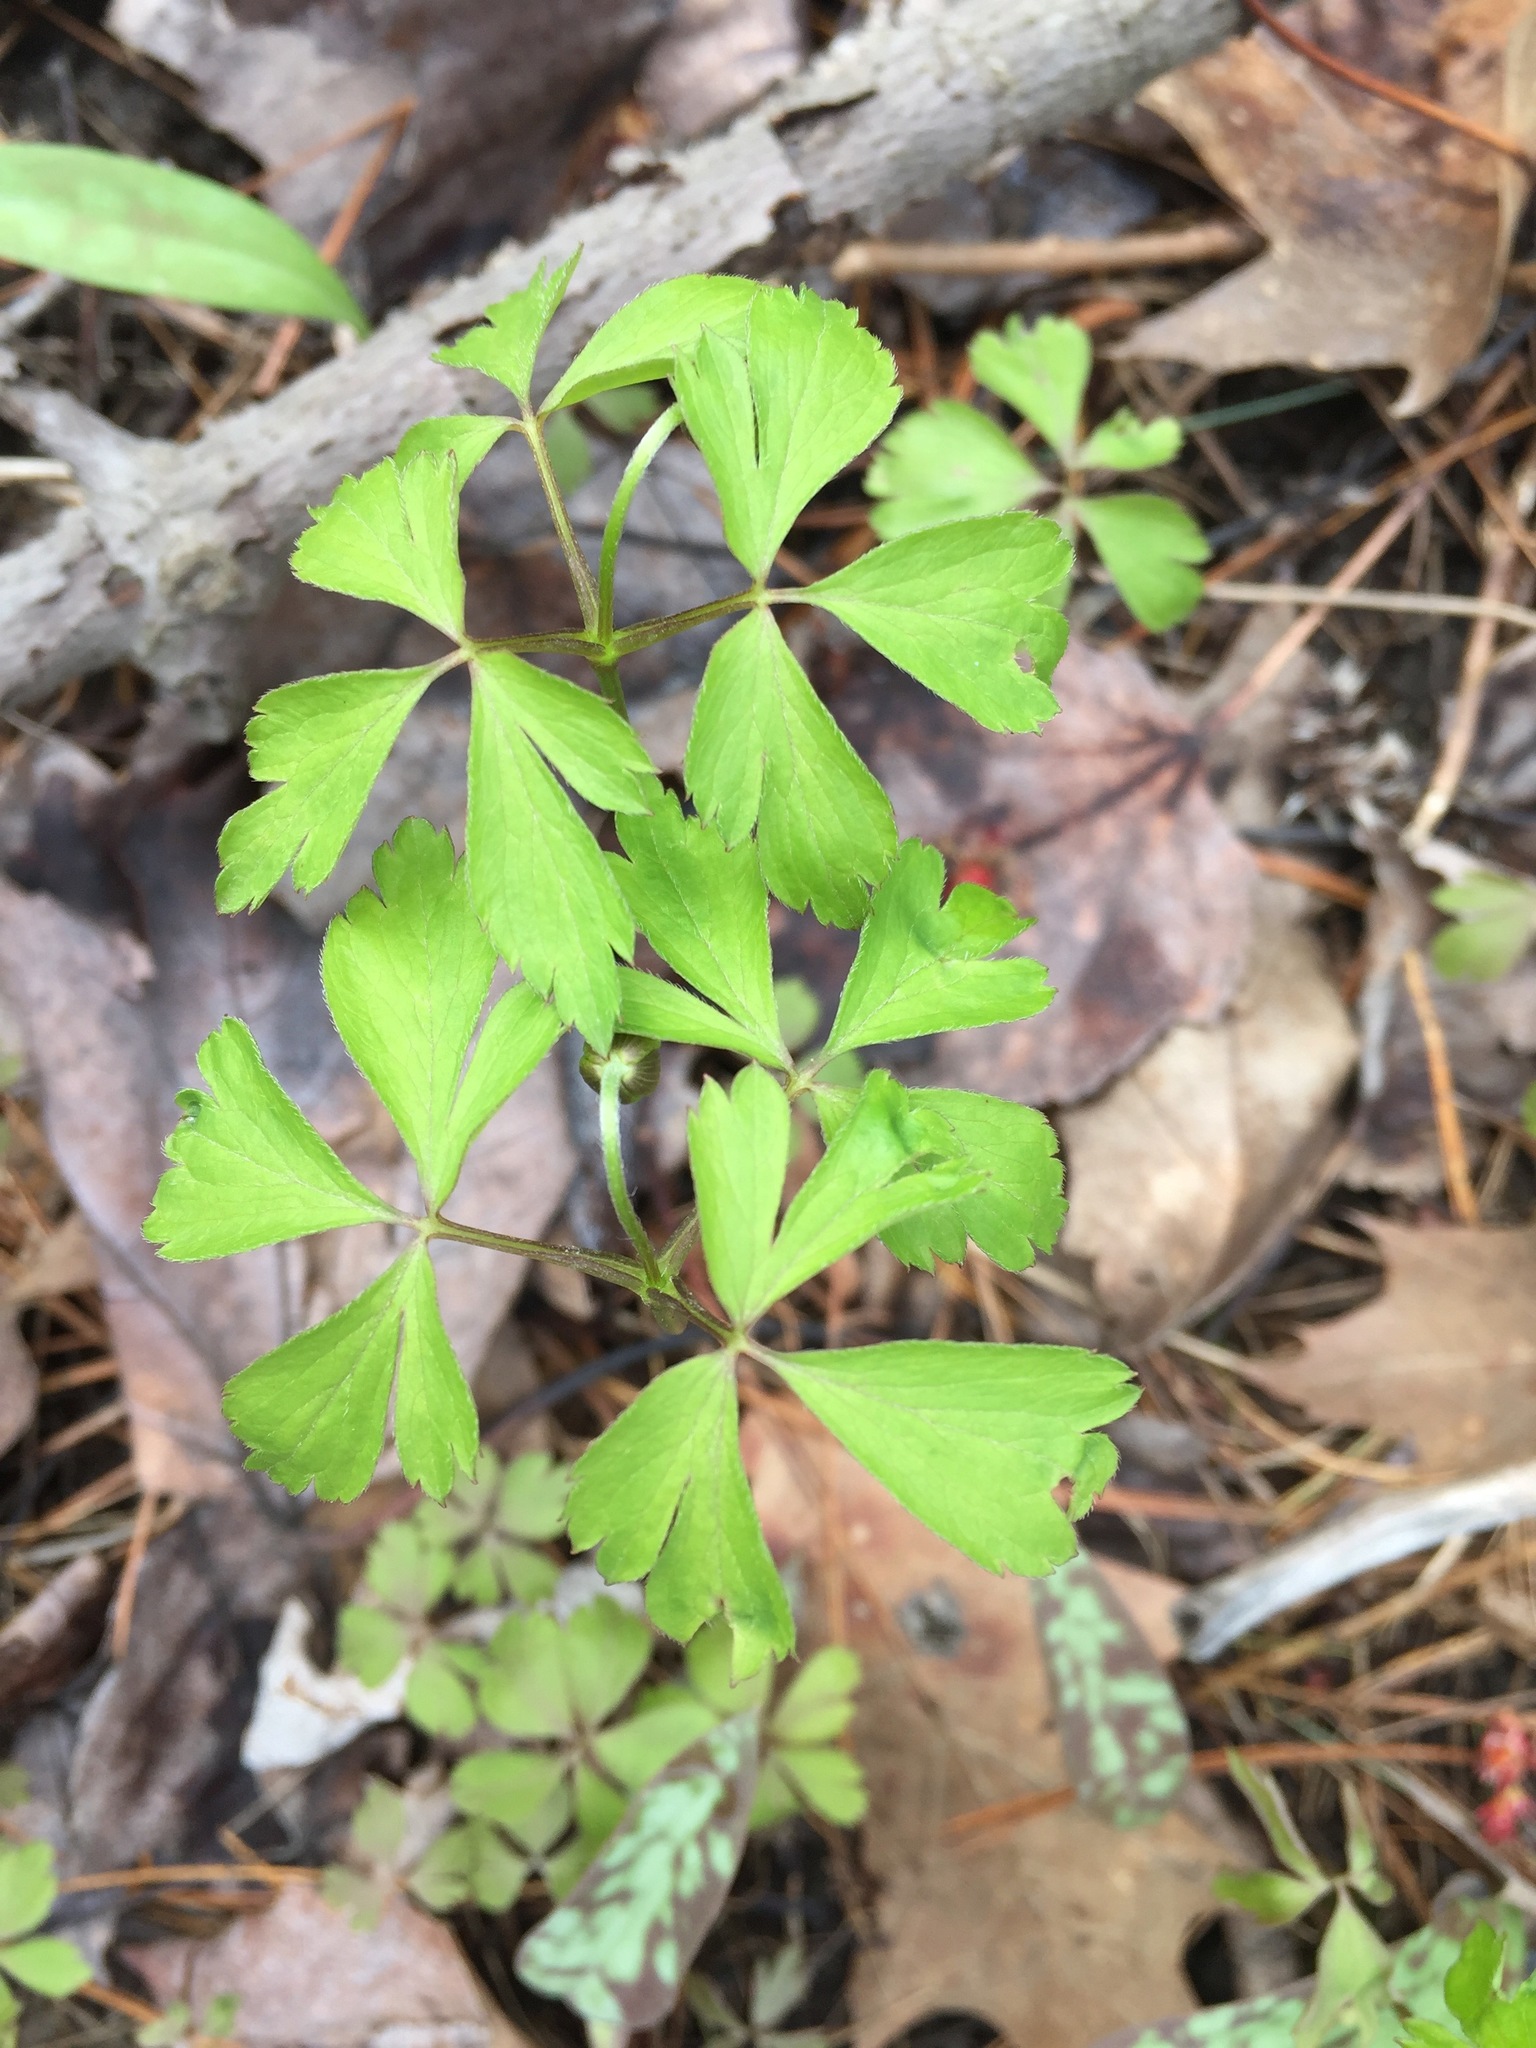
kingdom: Plantae
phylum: Tracheophyta
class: Magnoliopsida
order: Ranunculales
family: Ranunculaceae
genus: Anemone
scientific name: Anemone quinquefolia
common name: Wood anemone
